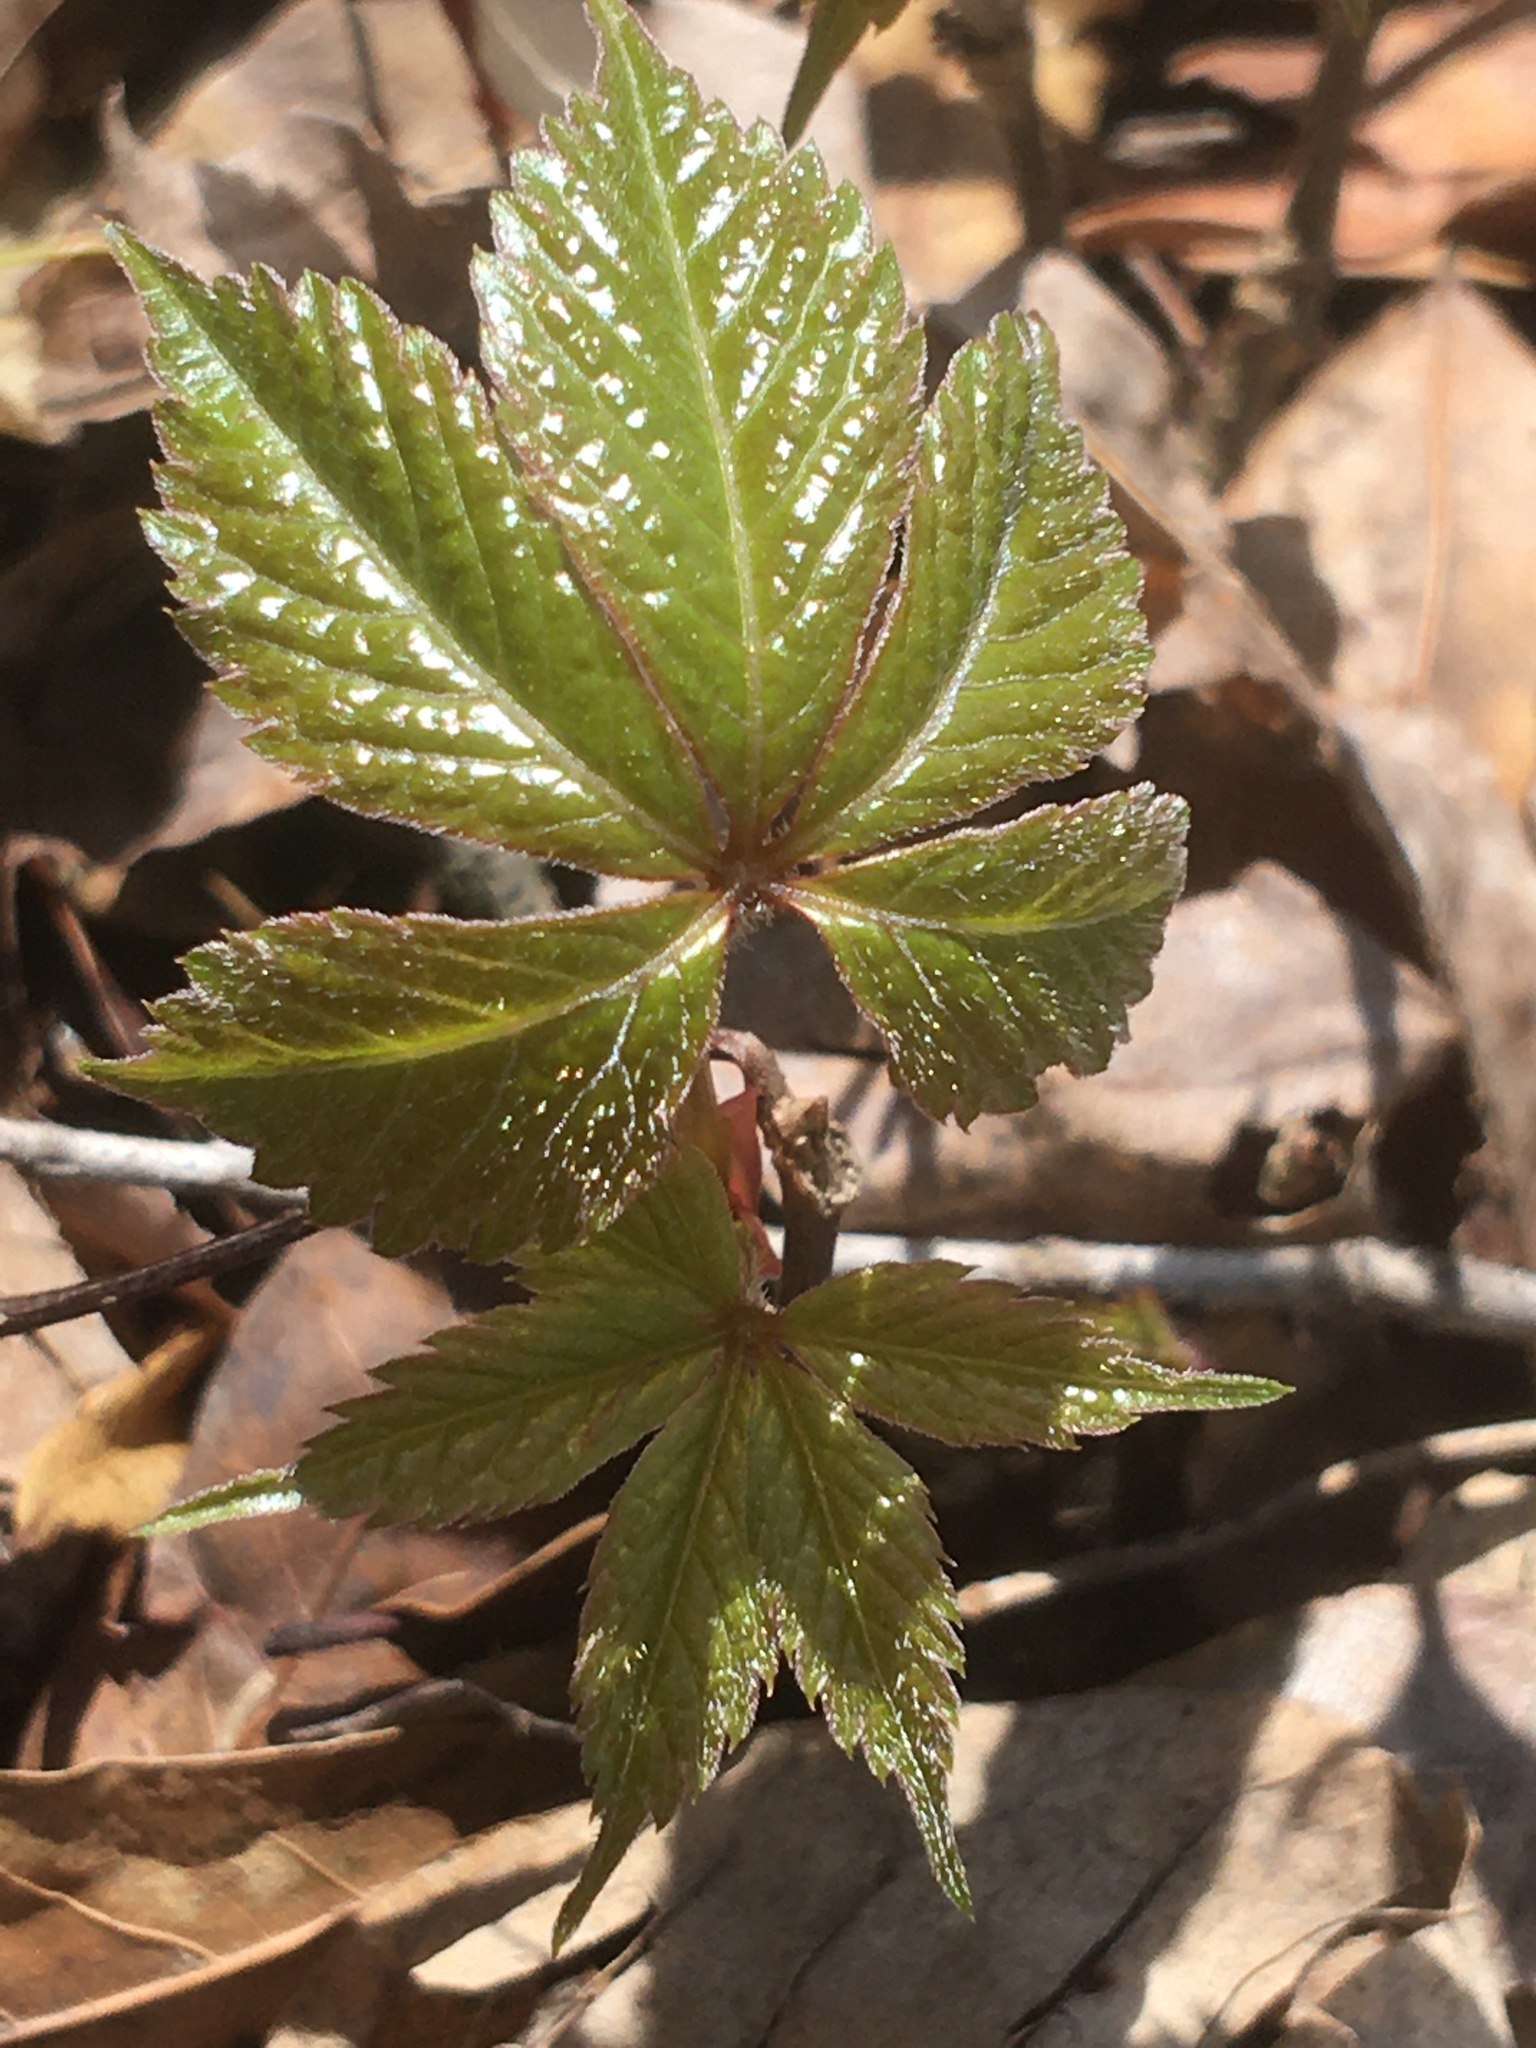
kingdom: Plantae
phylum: Tracheophyta
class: Magnoliopsida
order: Vitales
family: Vitaceae
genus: Parthenocissus
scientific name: Parthenocissus quinquefolia
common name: Virginia-creeper
